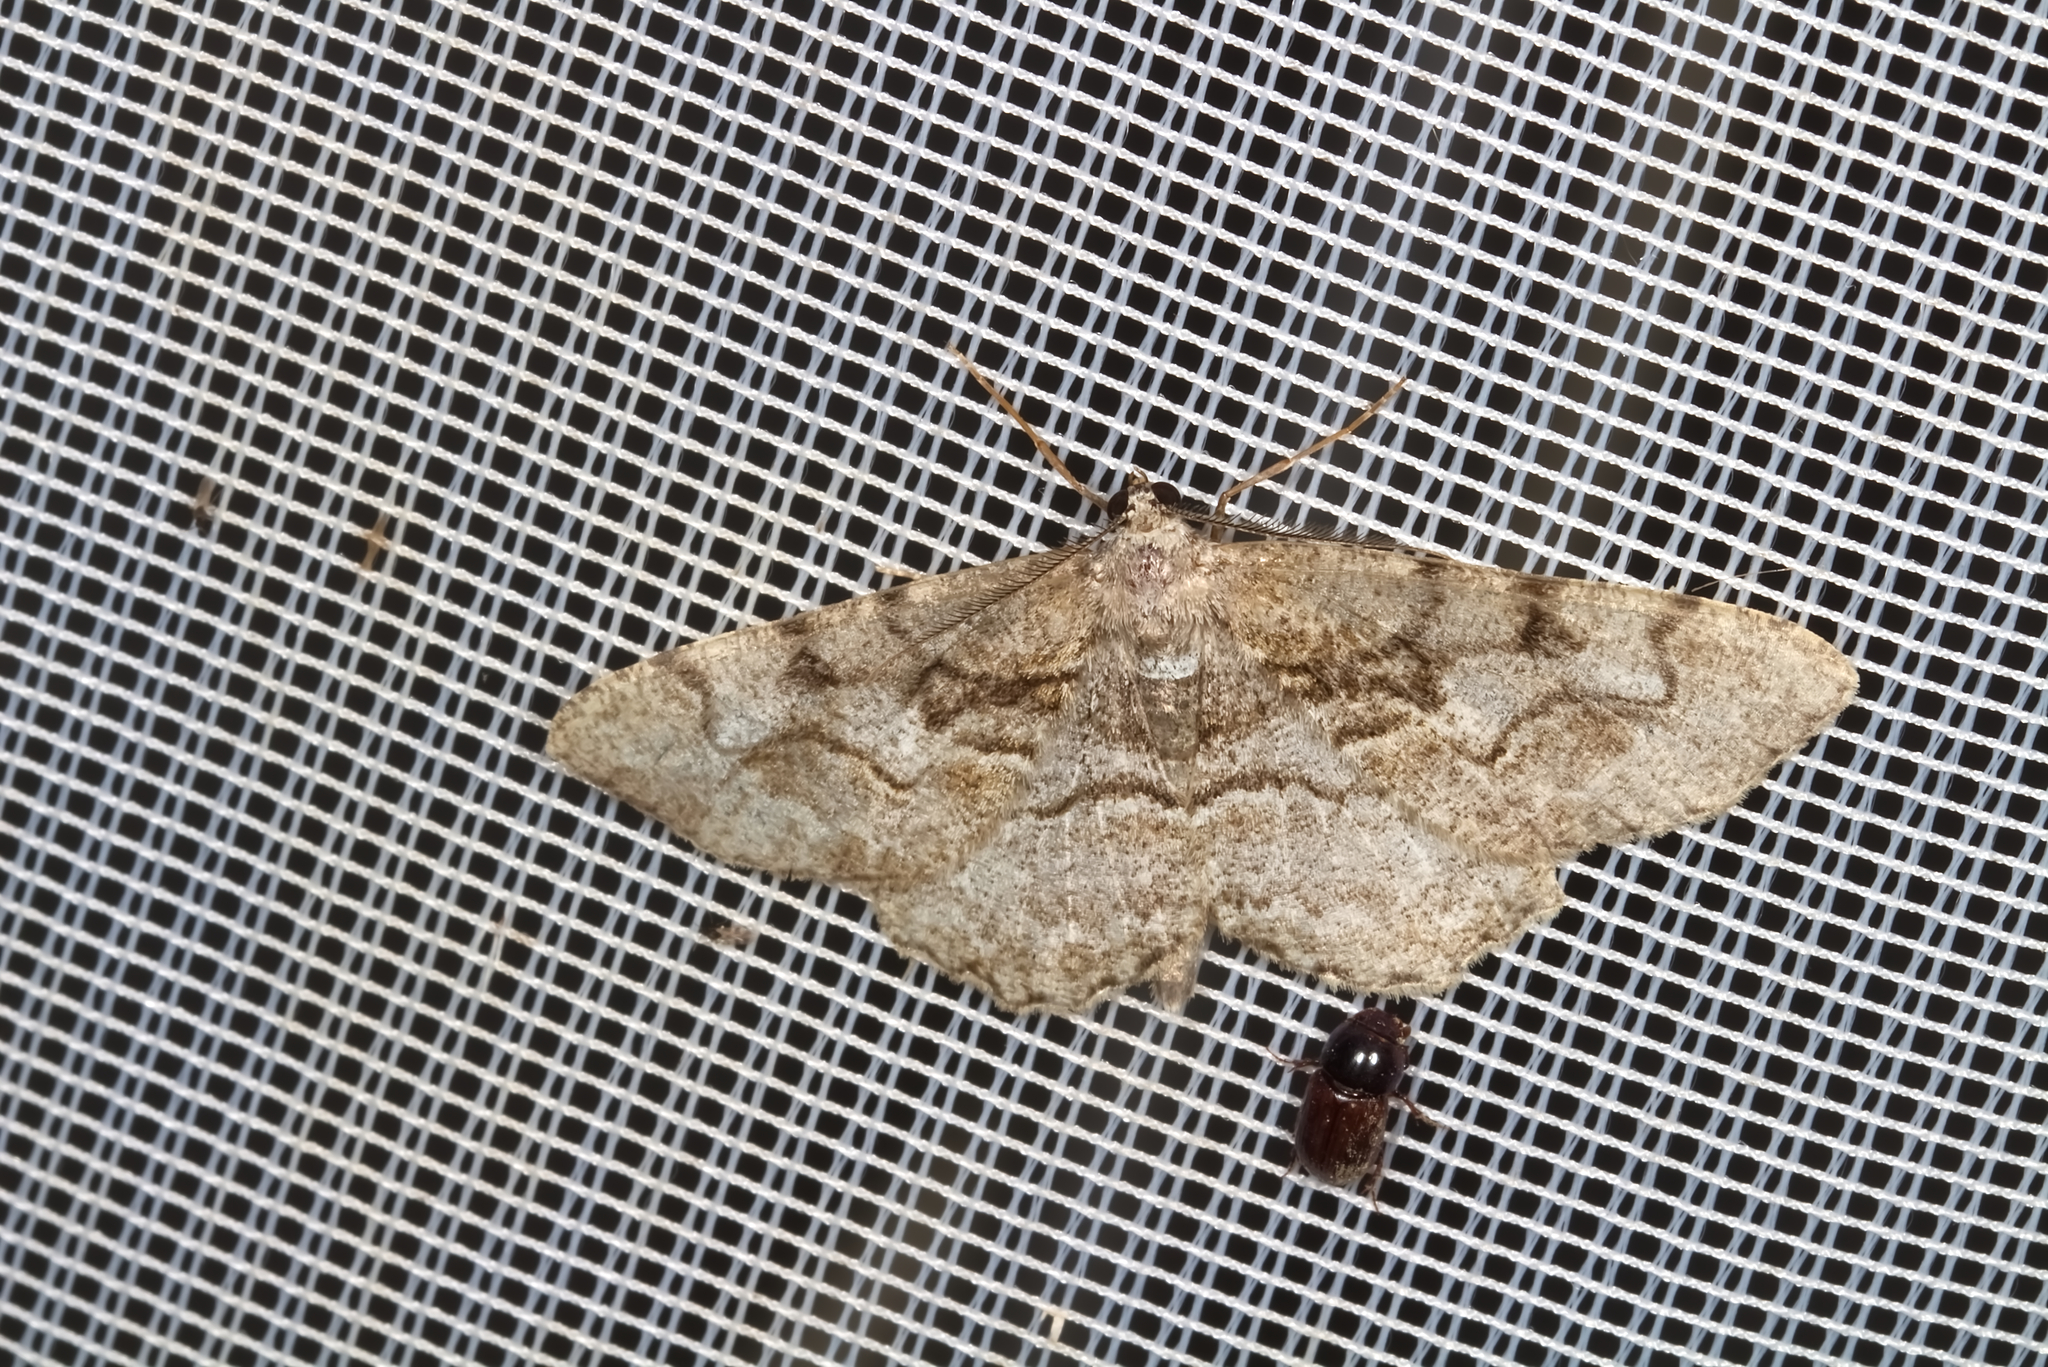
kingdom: Animalia
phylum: Arthropoda
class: Insecta
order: Lepidoptera
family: Geometridae
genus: Alcis
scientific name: Alcis repandata
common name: Mottled beauty
